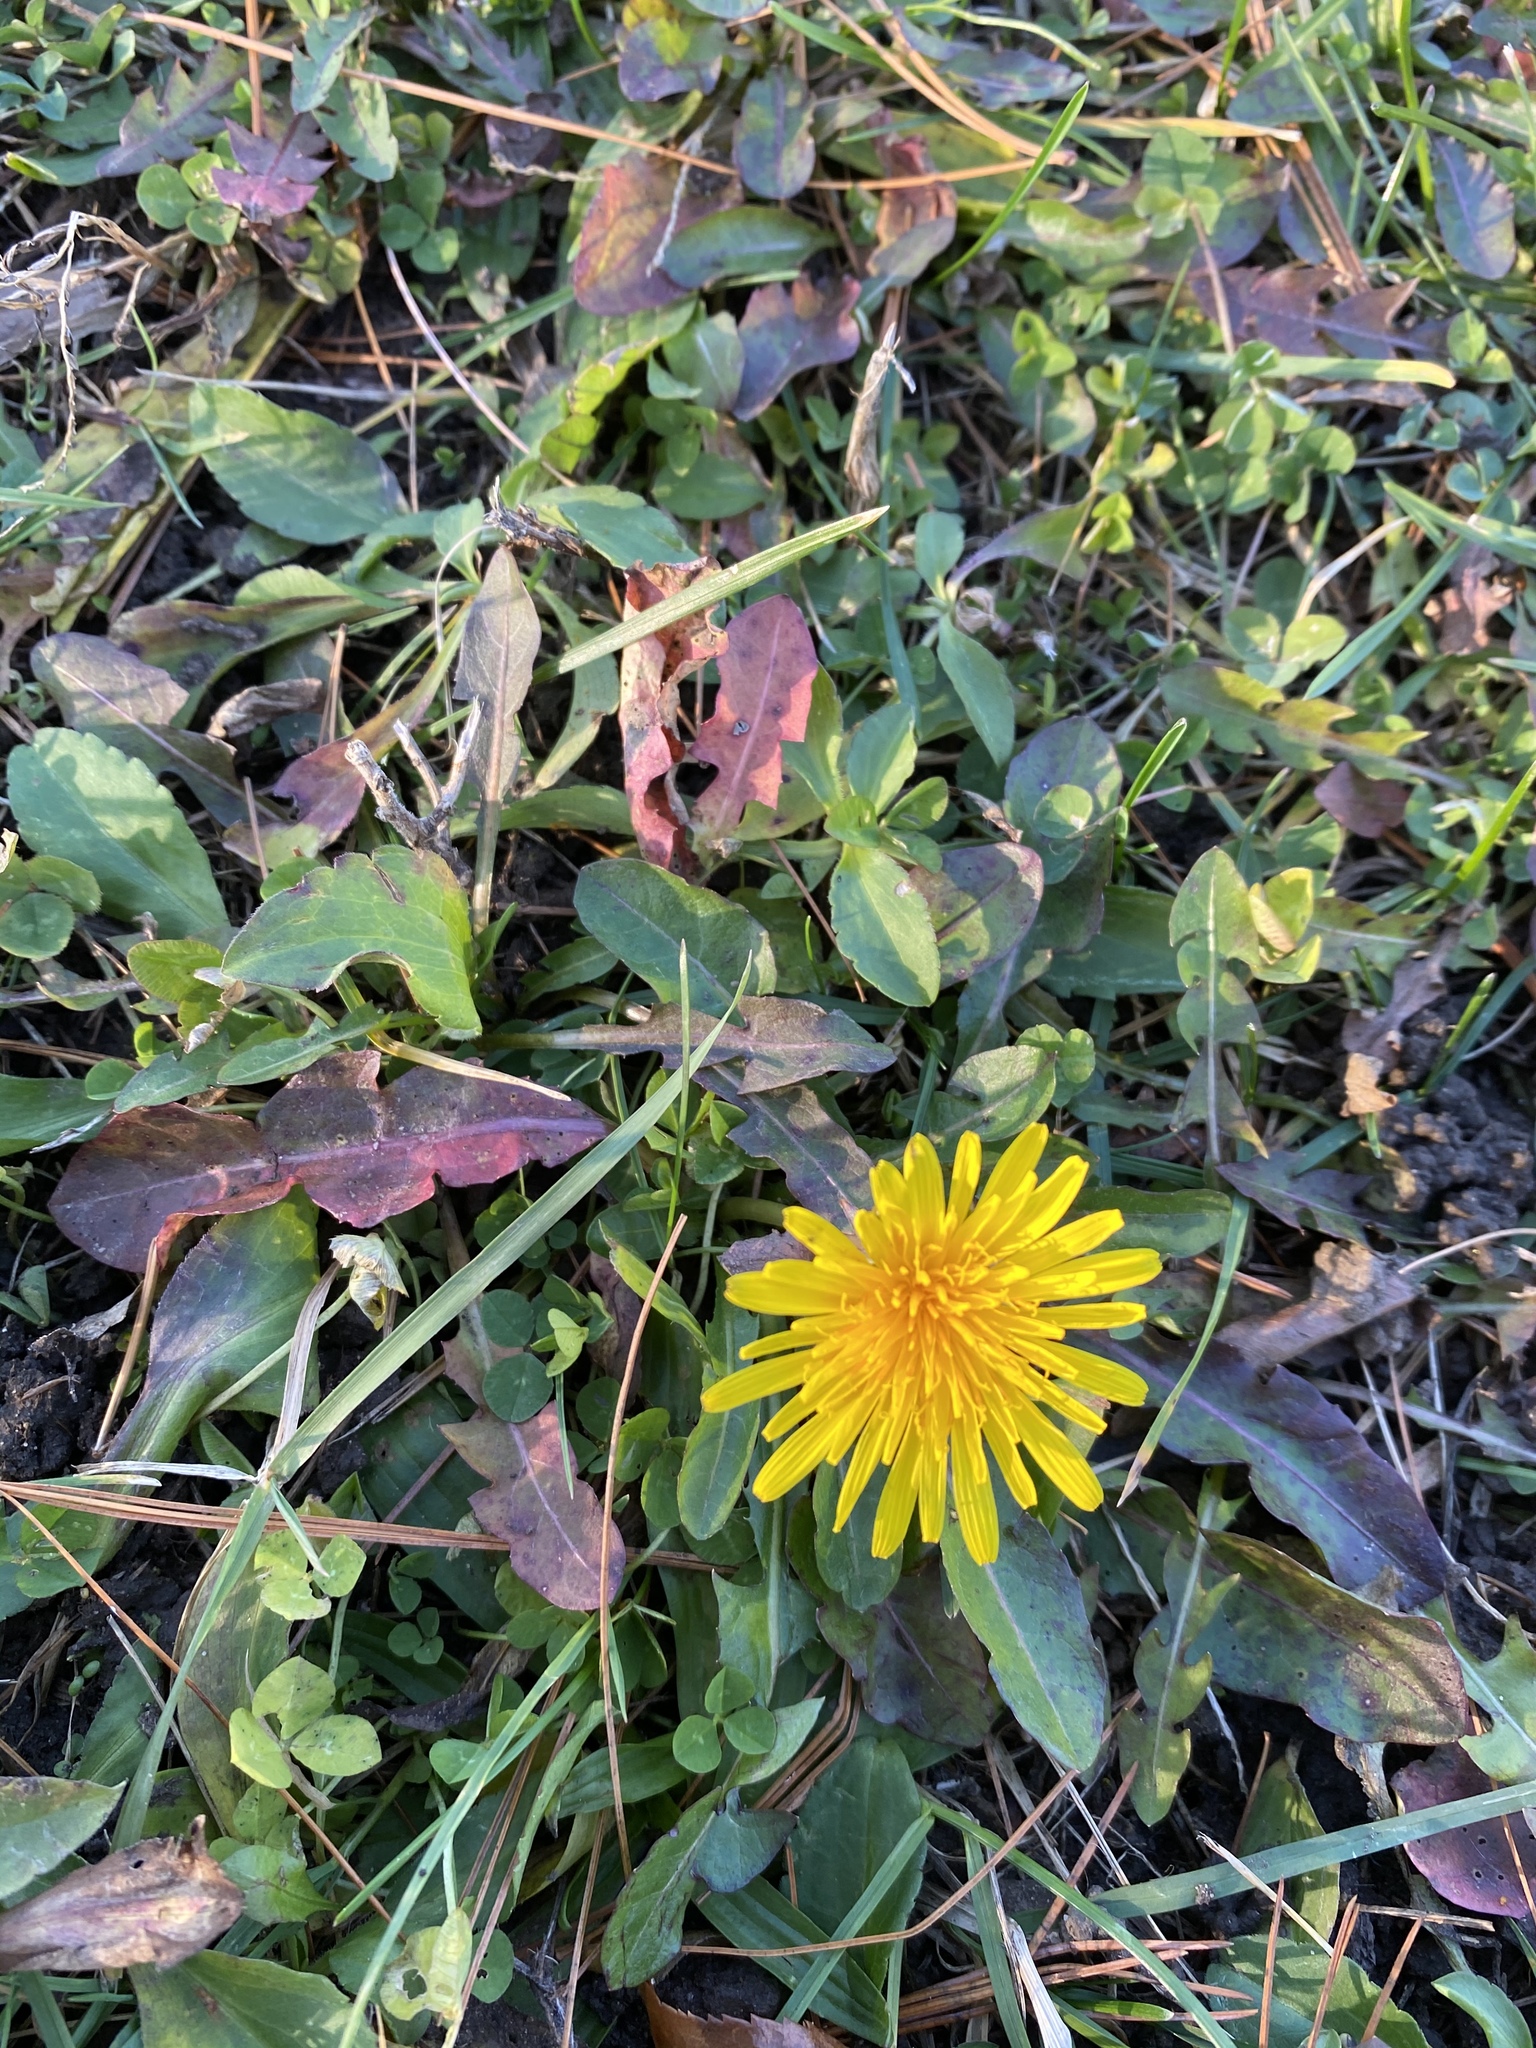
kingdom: Plantae
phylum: Tracheophyta
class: Magnoliopsida
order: Asterales
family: Asteraceae
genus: Taraxacum
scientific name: Taraxacum officinale
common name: Common dandelion
